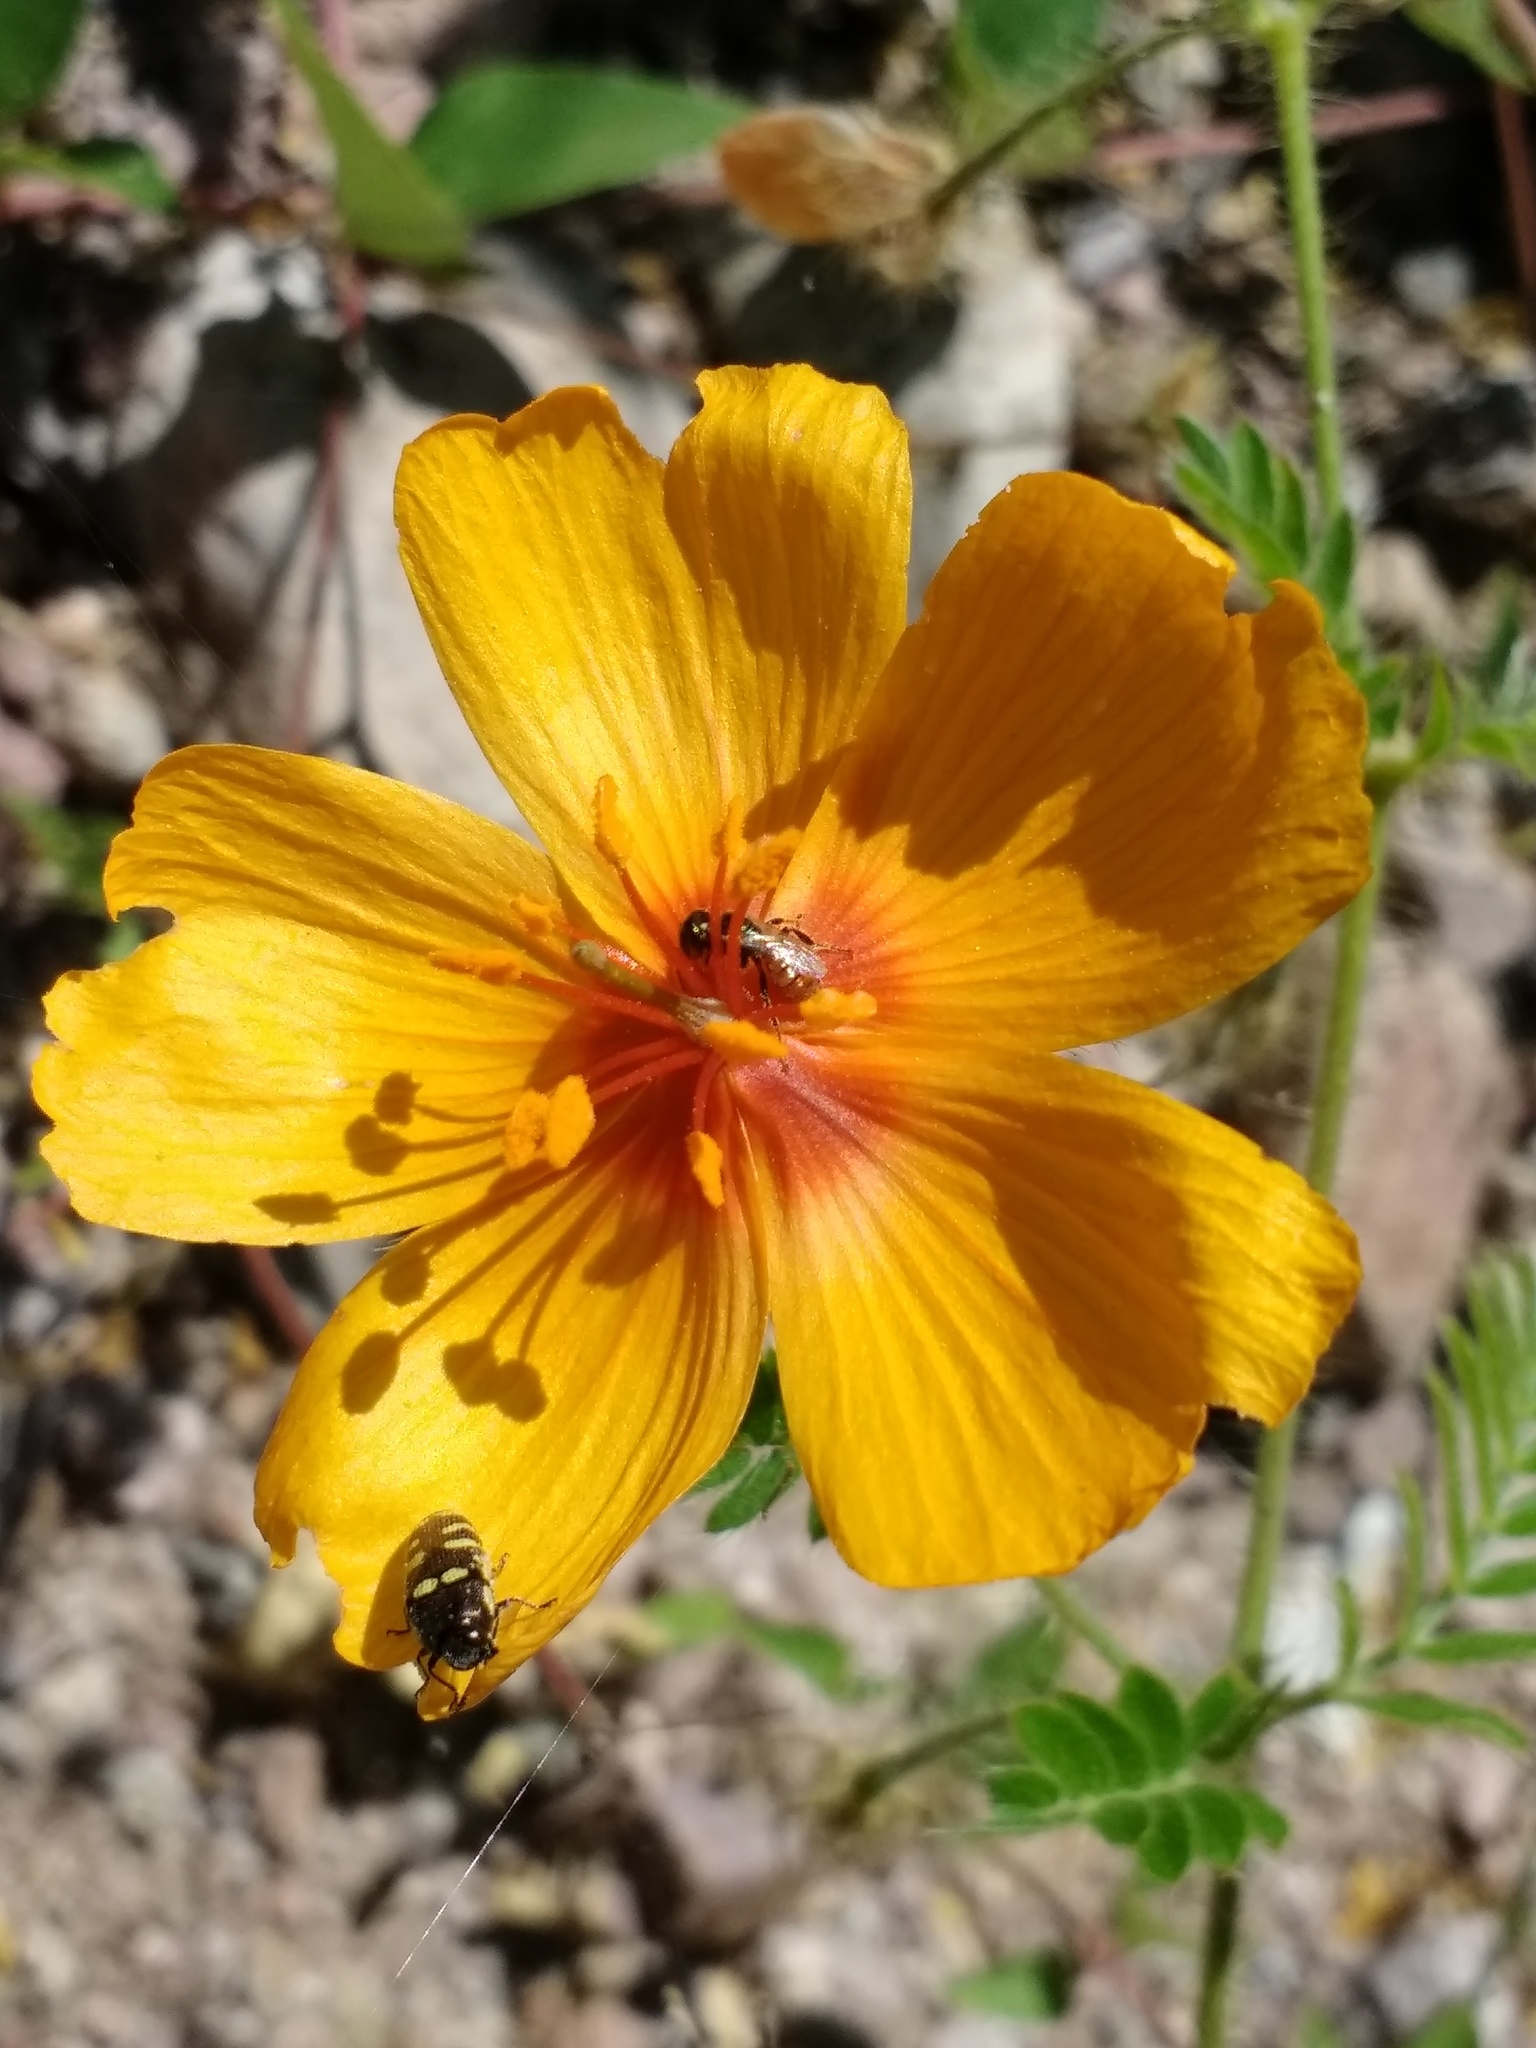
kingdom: Plantae
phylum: Tracheophyta
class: Magnoliopsida
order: Zygophyllales
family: Zygophyllaceae
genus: Kallstroemia
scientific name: Kallstroemia grandiflora
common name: Arizona-poppy
